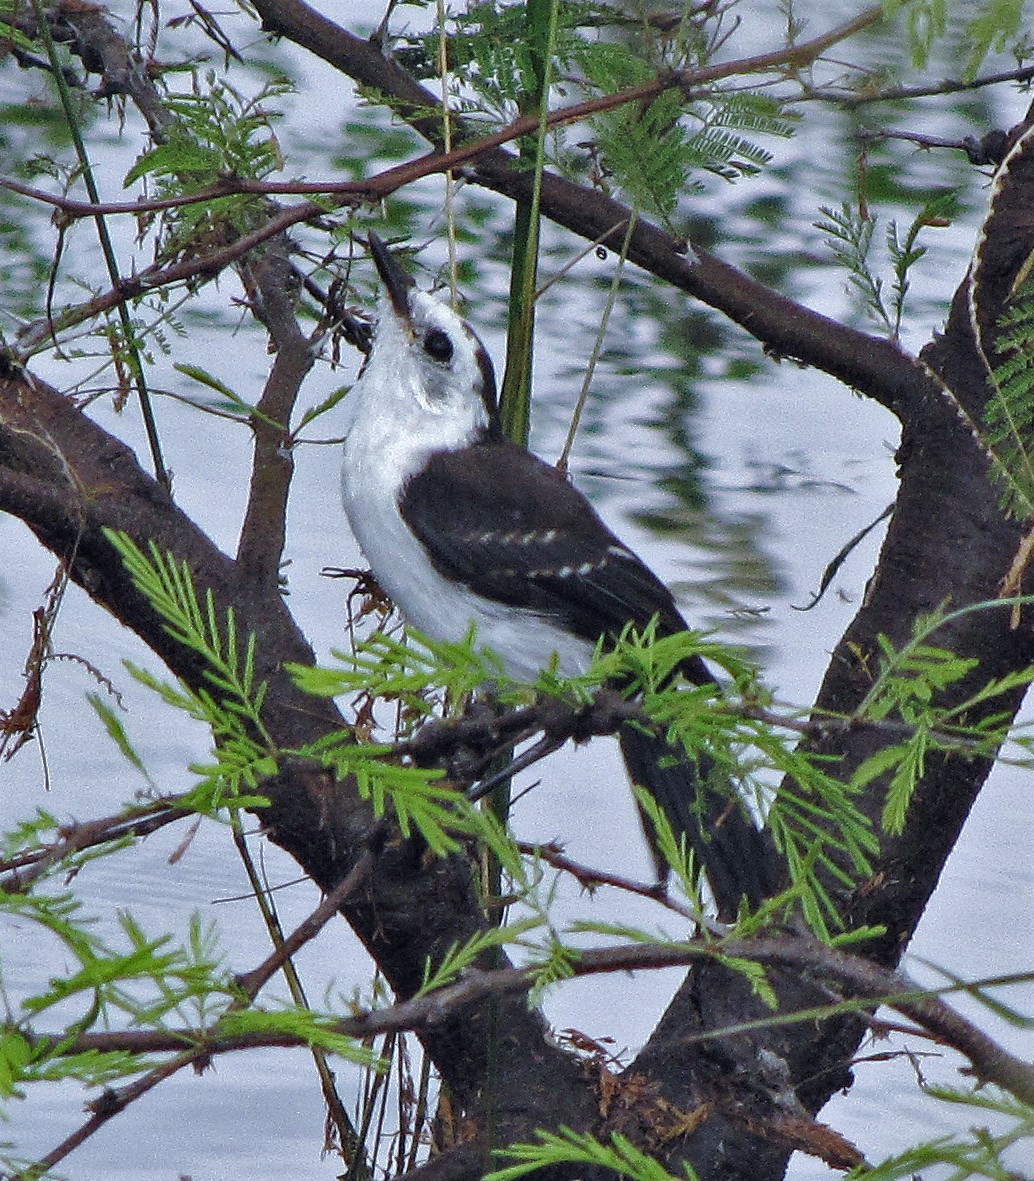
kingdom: Animalia
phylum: Chordata
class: Aves
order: Passeriformes
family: Tyrannidae
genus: Fluvicola
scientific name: Fluvicola pica
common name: Pied water-tyrant
